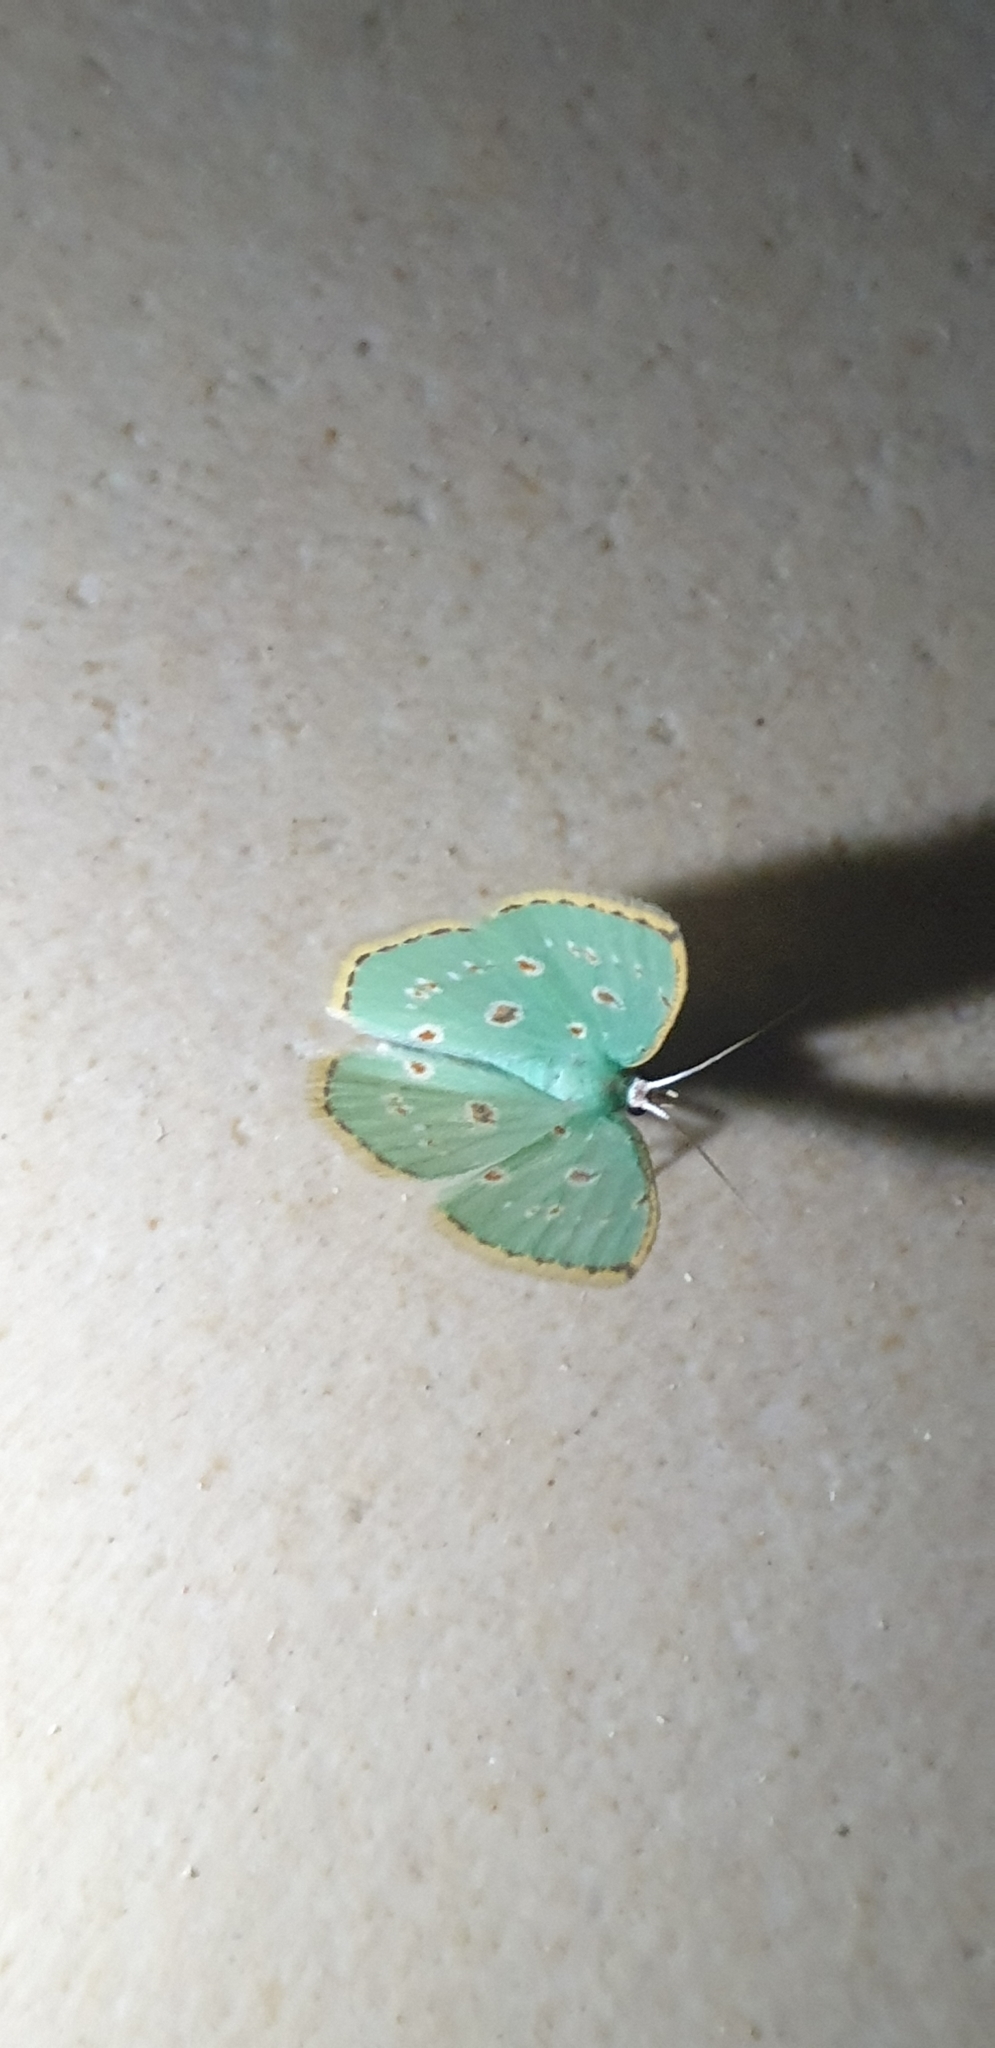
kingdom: Animalia
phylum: Arthropoda
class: Insecta
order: Lepidoptera
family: Geometridae
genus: Comostola
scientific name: Comostola laesaria
